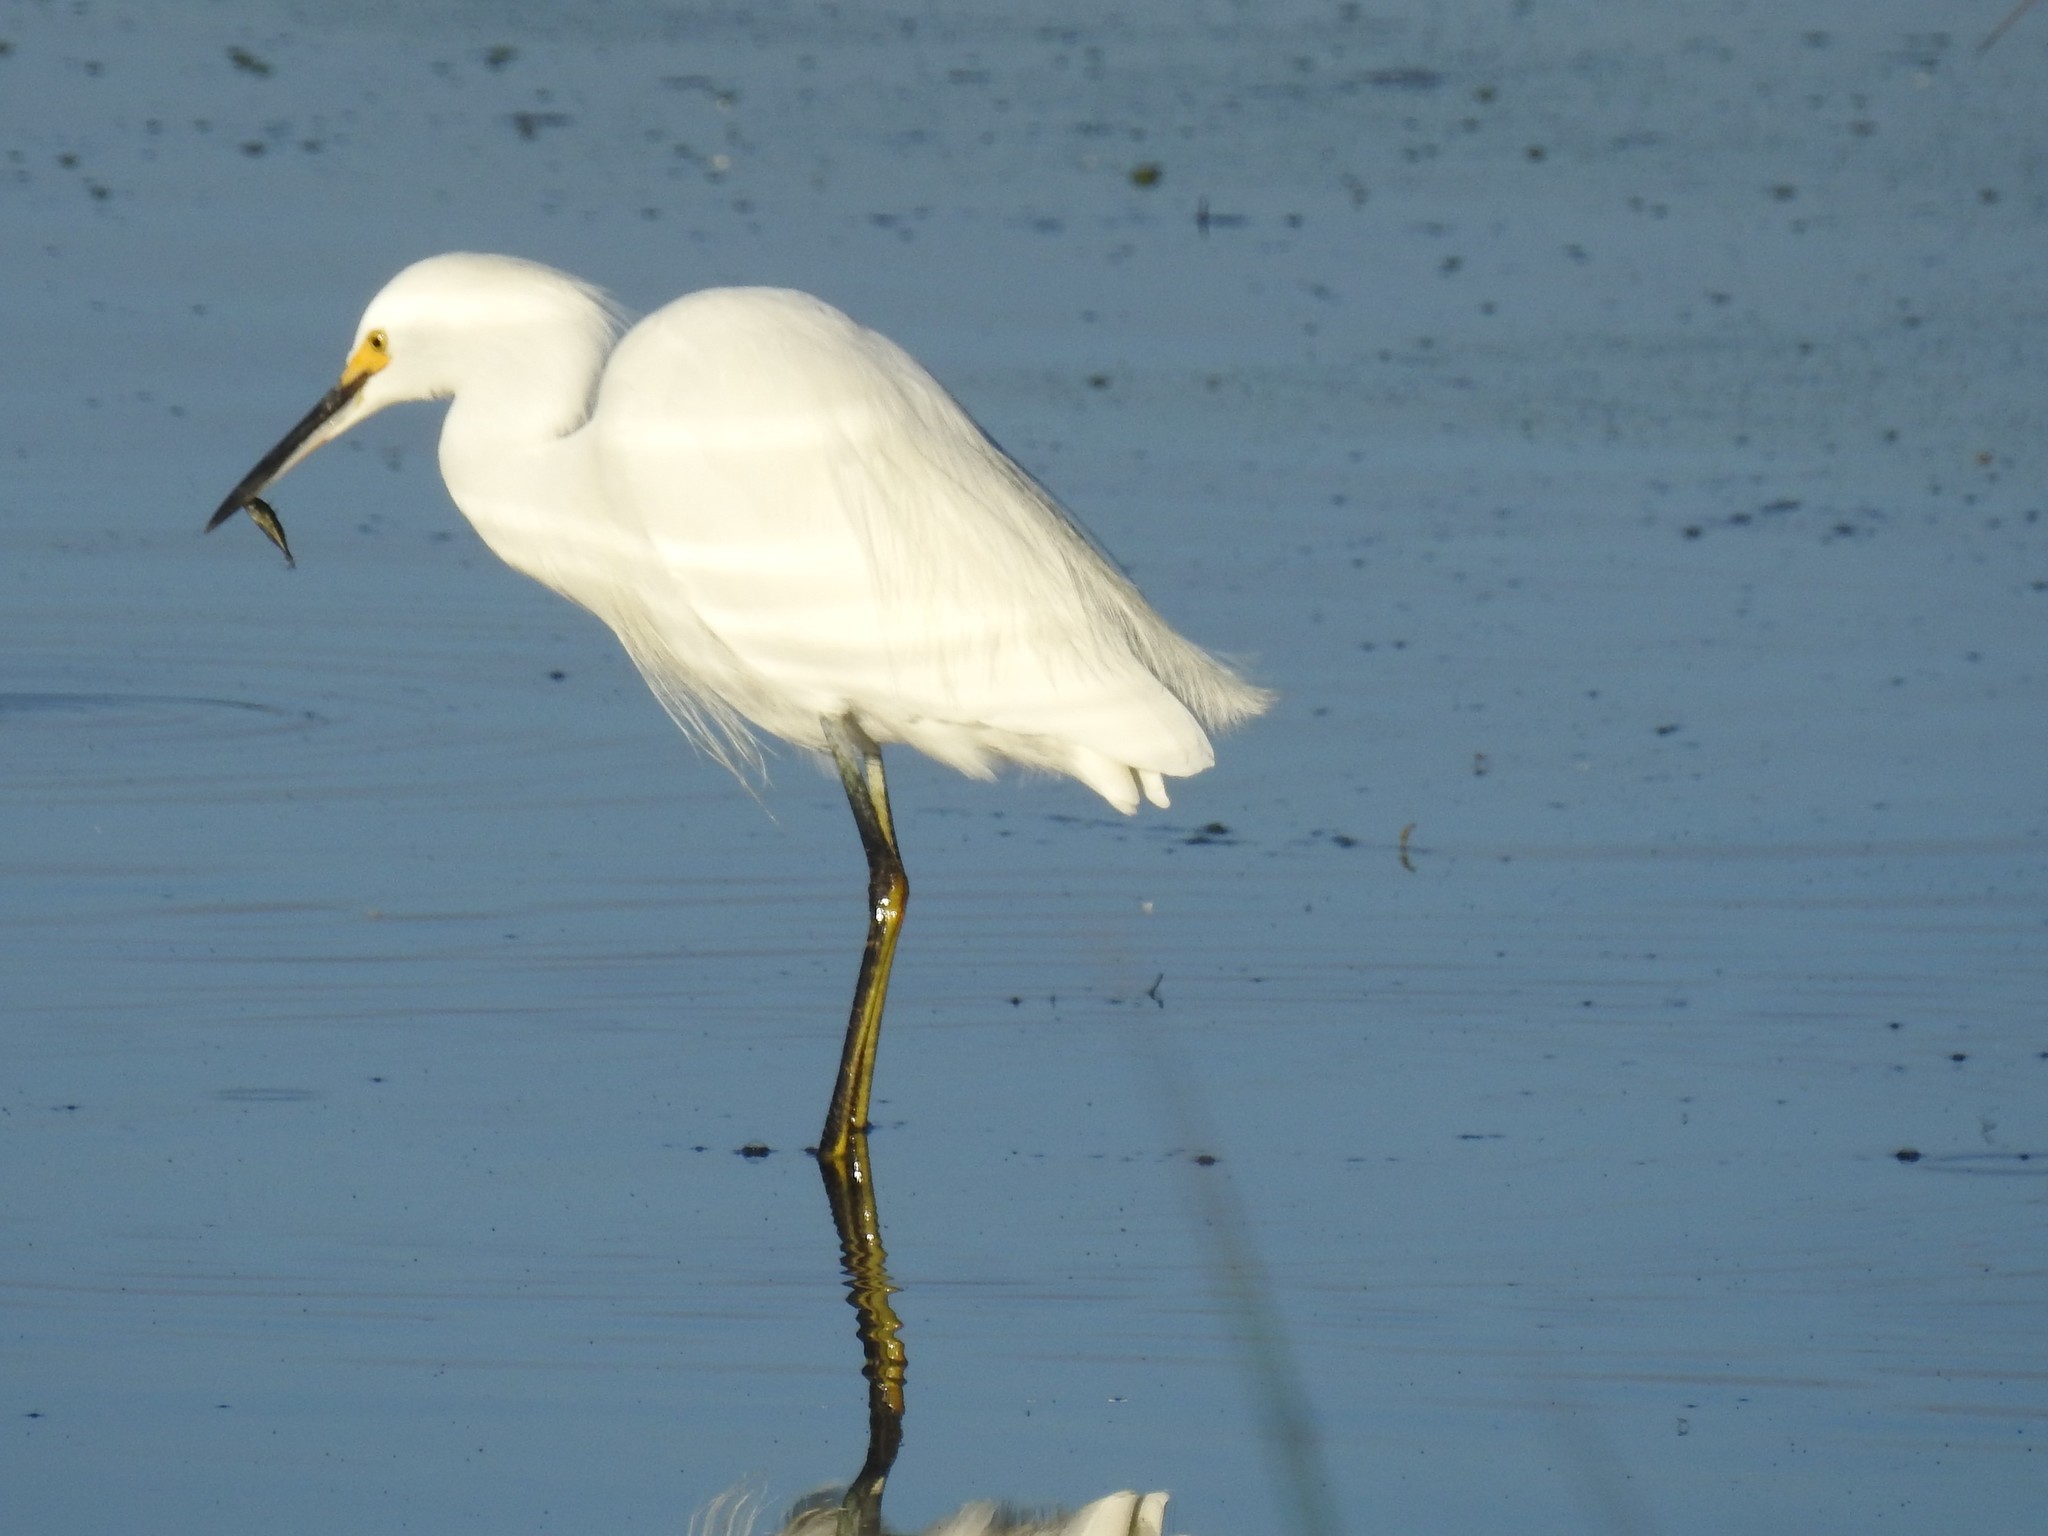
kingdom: Animalia
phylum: Chordata
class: Aves
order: Pelecaniformes
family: Ardeidae
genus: Egretta
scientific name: Egretta thula
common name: Snowy egret
